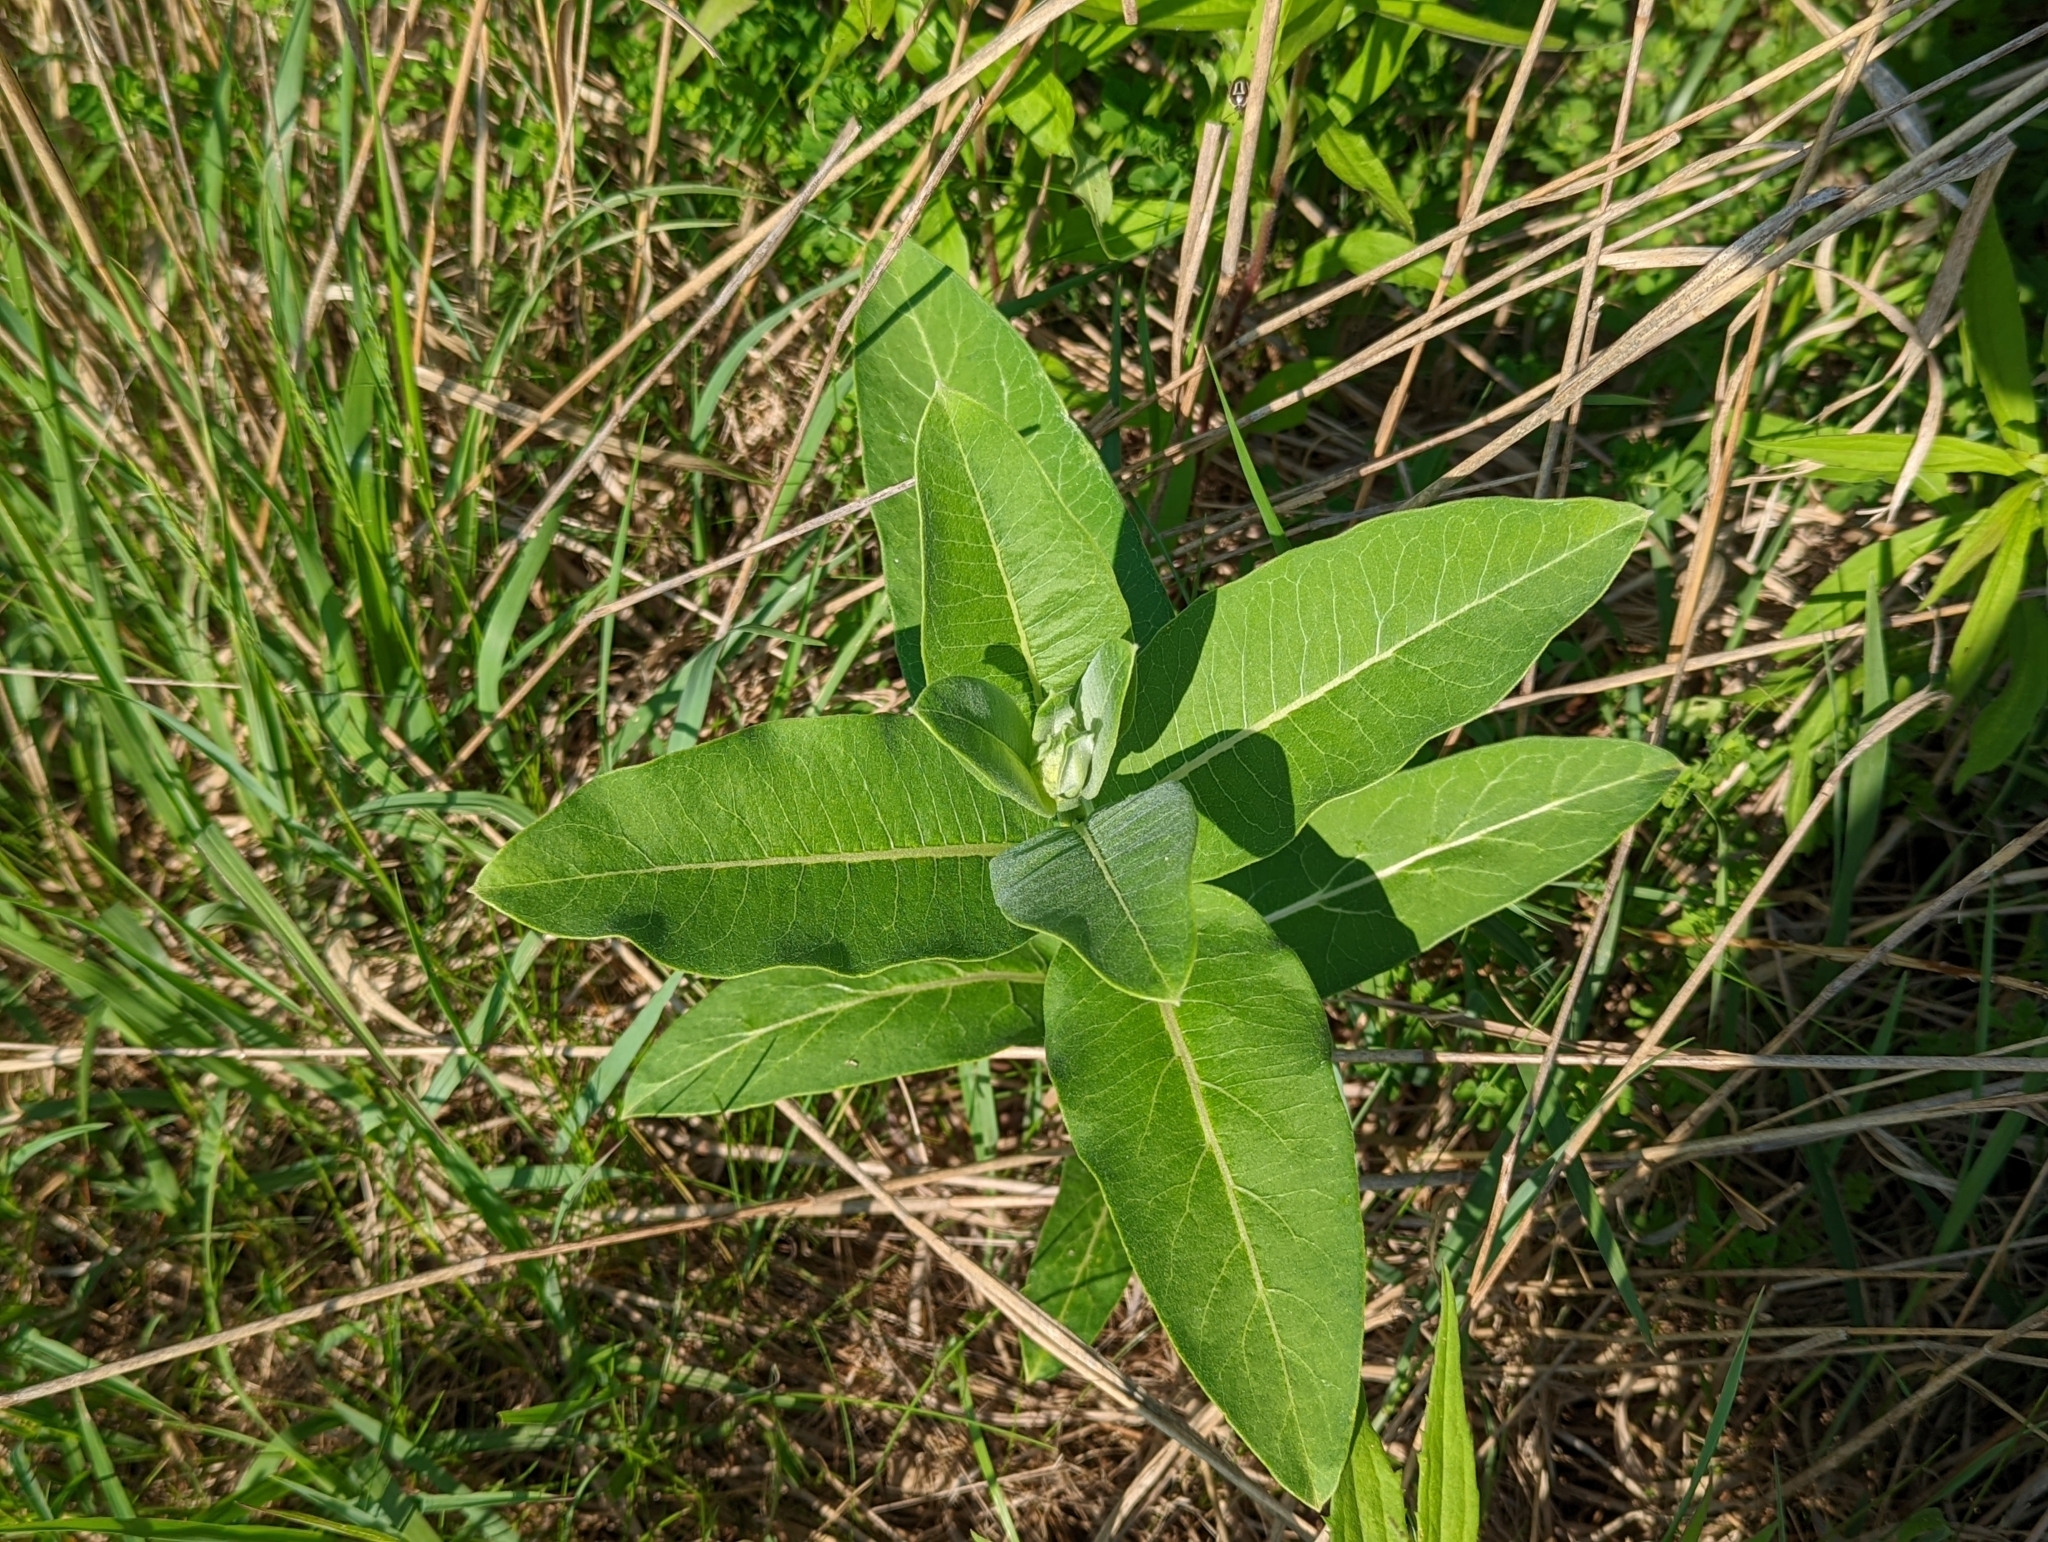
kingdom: Plantae
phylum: Tracheophyta
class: Magnoliopsida
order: Gentianales
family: Apocynaceae
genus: Asclepias
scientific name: Asclepias syriaca
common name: Common milkweed
